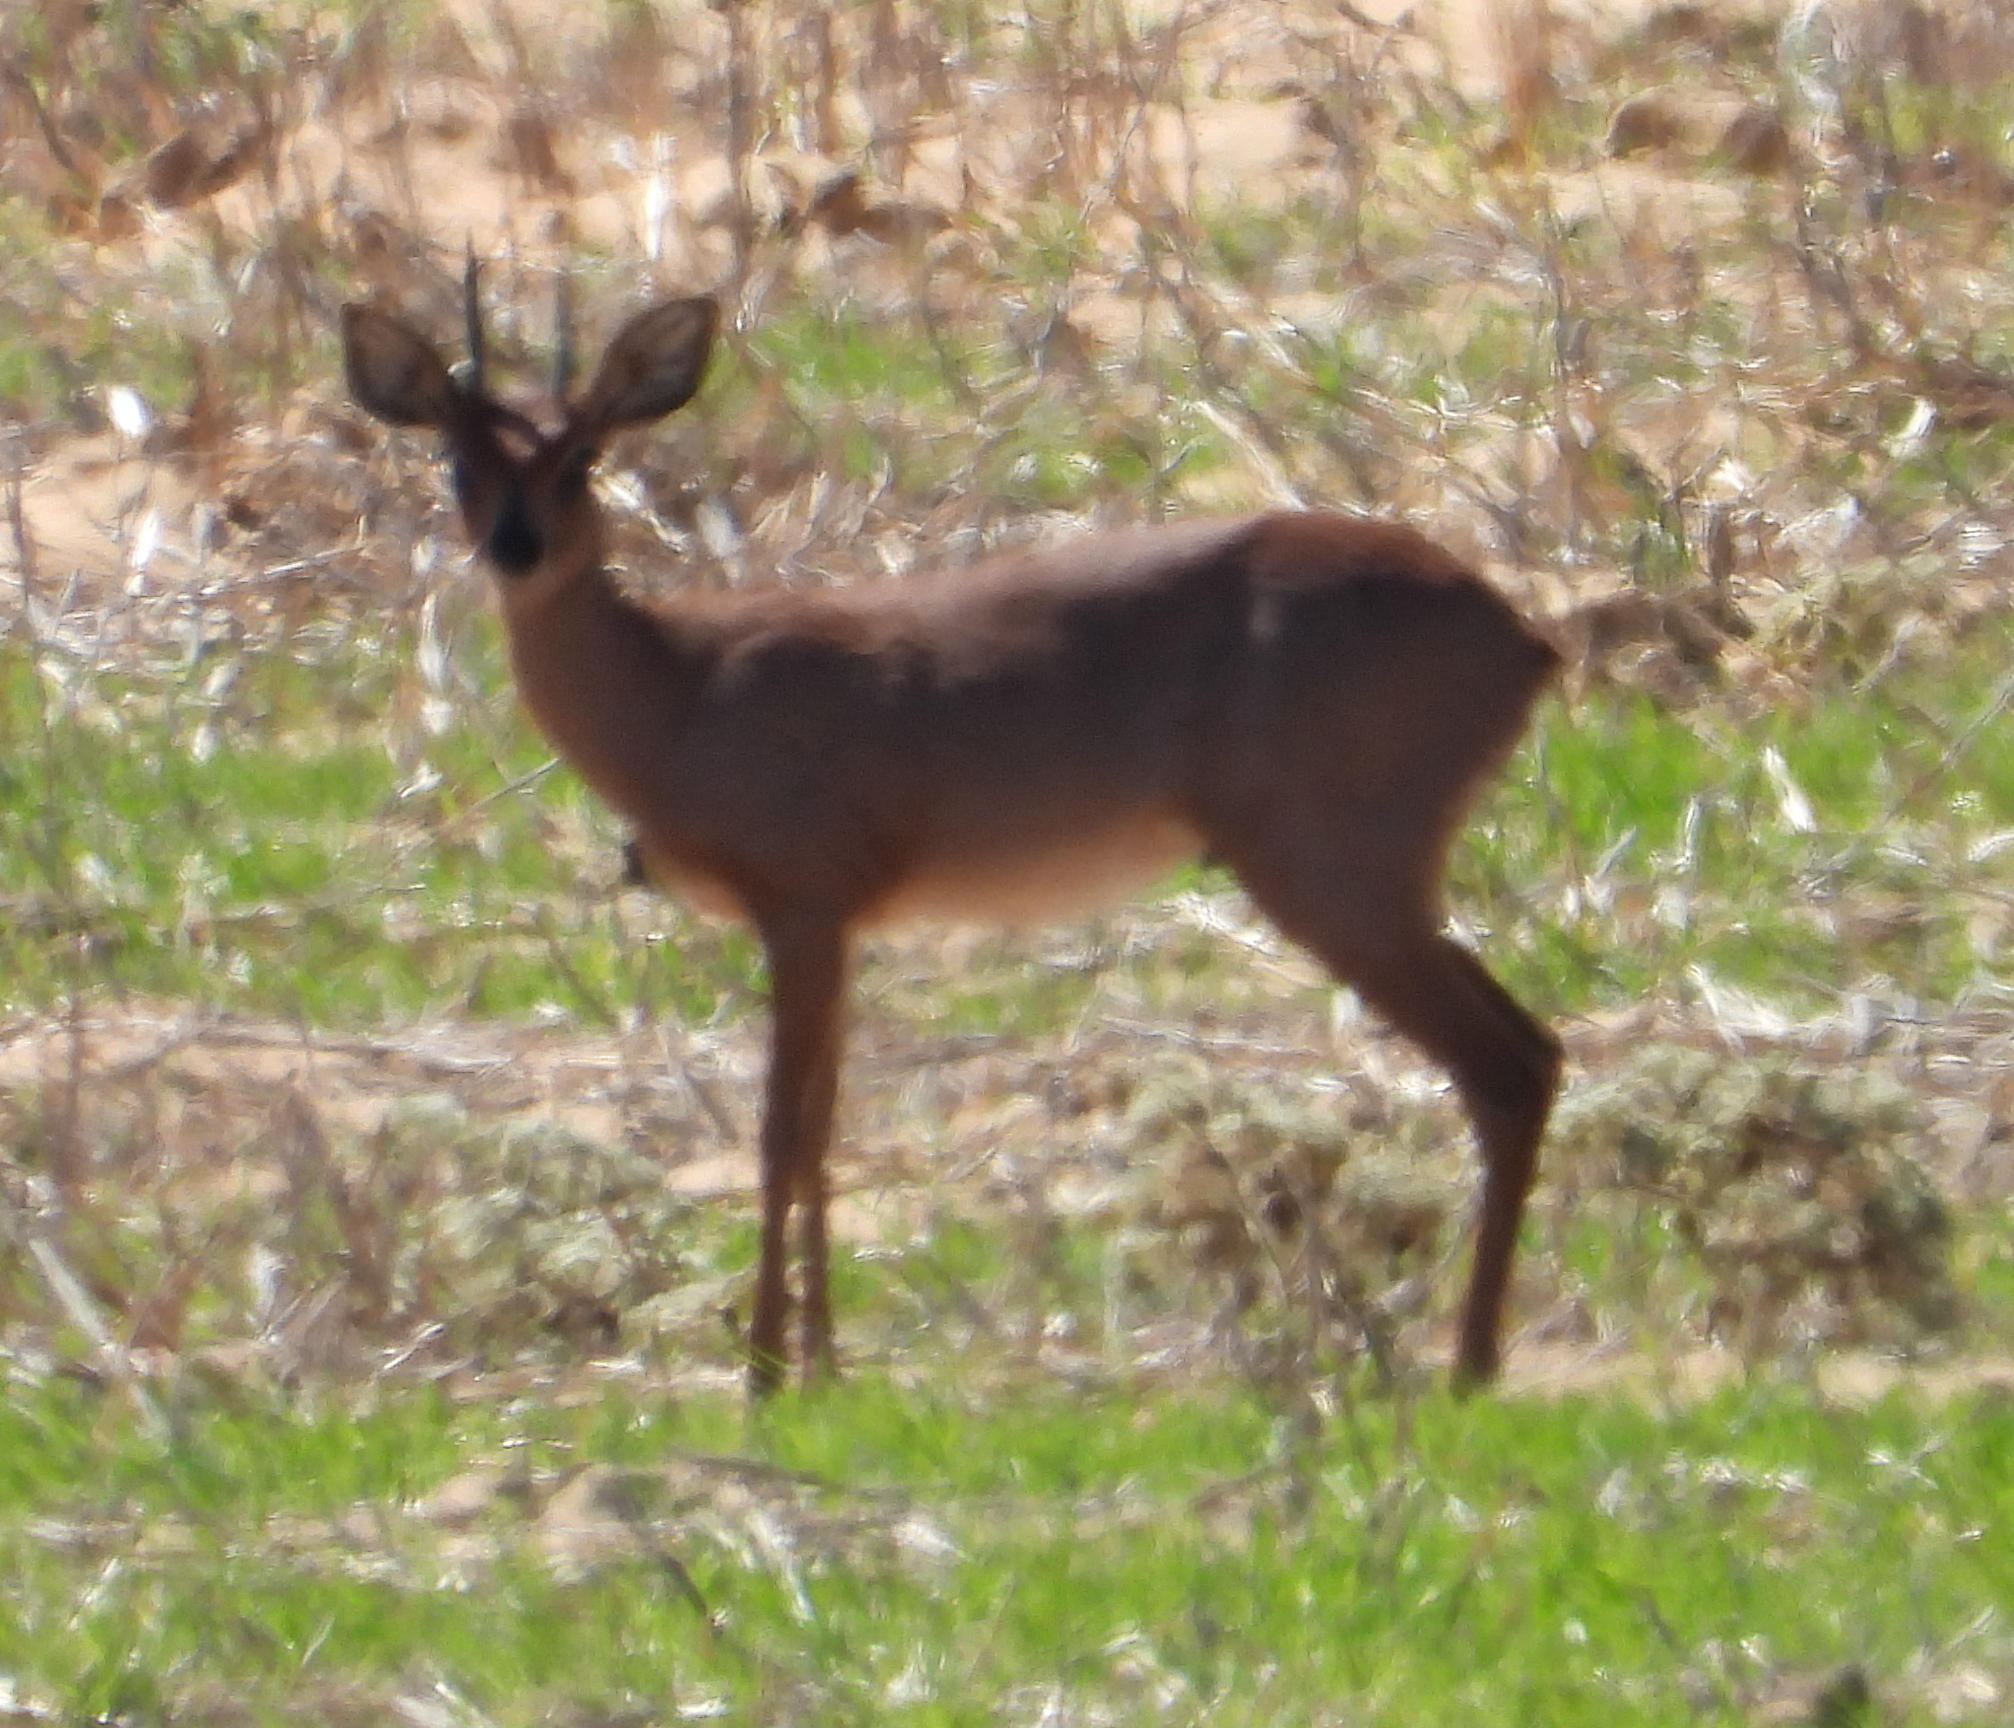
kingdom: Animalia
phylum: Chordata
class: Mammalia
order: Artiodactyla
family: Bovidae
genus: Raphicerus
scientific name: Raphicerus campestris
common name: Steenbok
